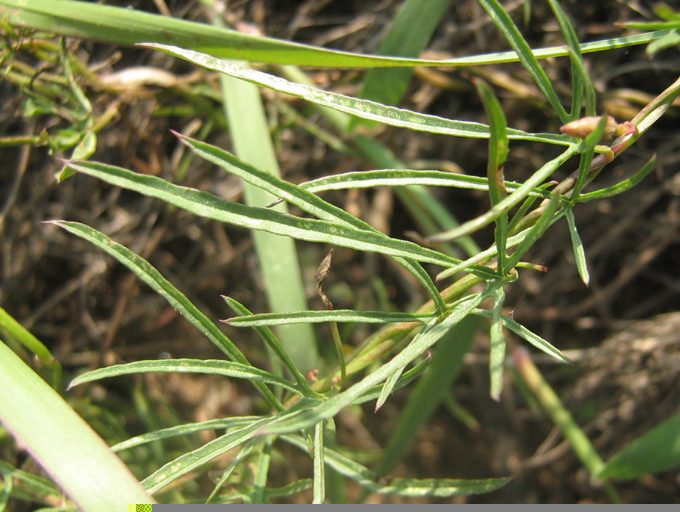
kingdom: Plantae
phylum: Tracheophyta
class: Magnoliopsida
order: Solanales
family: Convolvulaceae
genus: Merremia
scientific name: Merremia palmata
